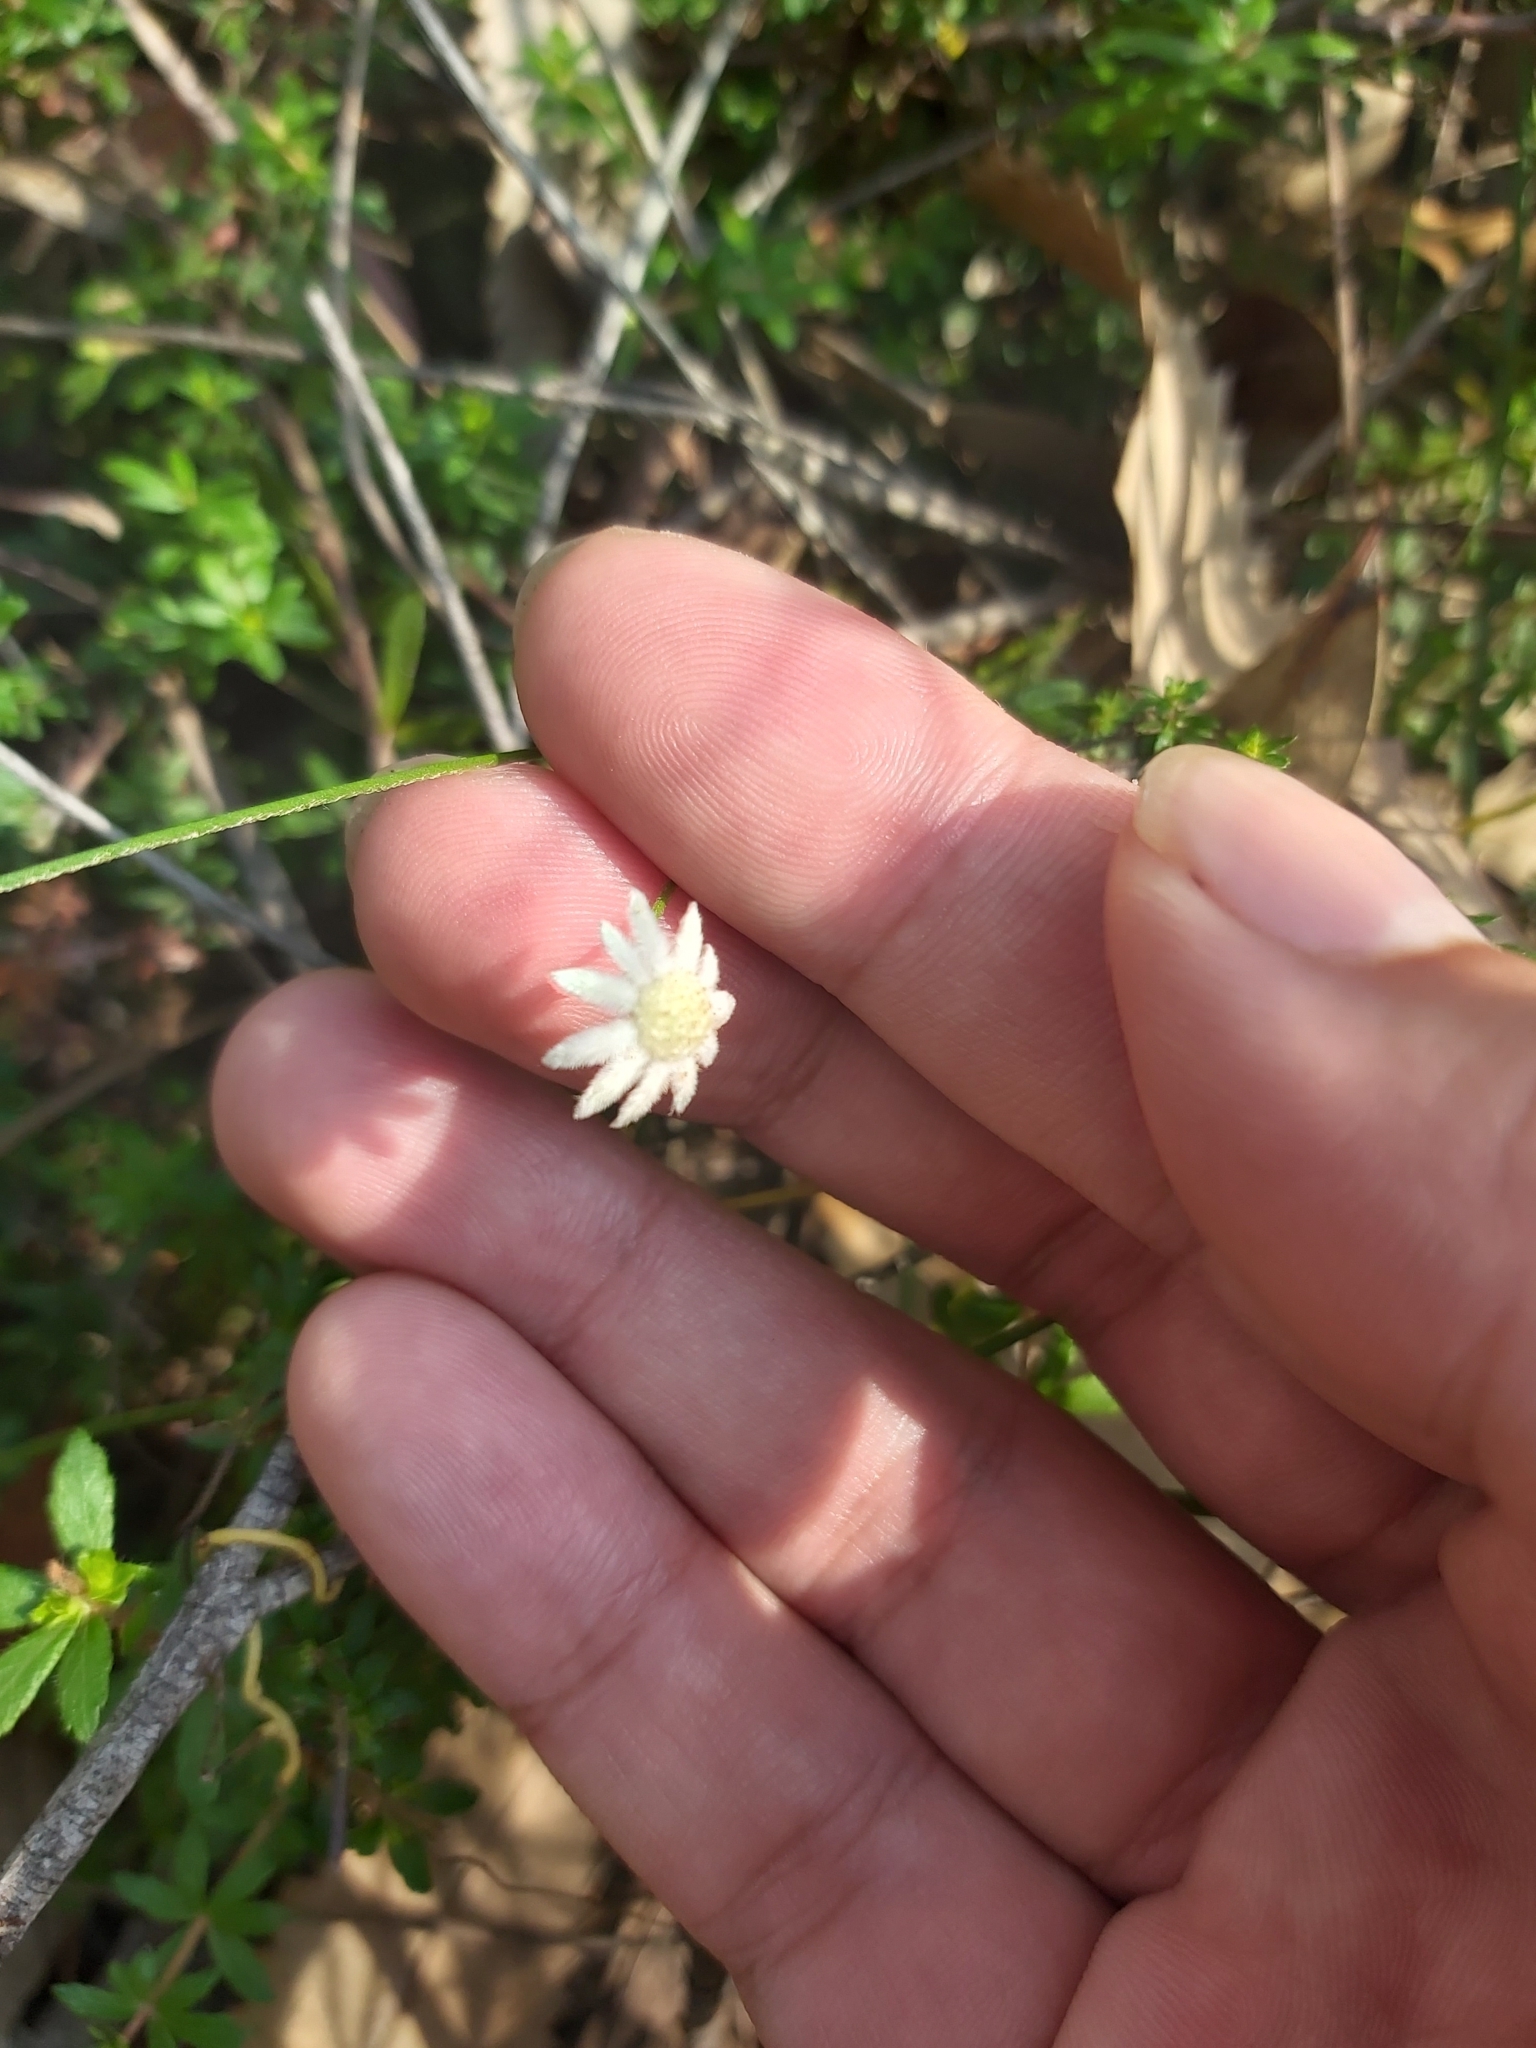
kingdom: Plantae
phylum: Tracheophyta
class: Magnoliopsida
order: Apiales
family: Apiaceae
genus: Actinotus
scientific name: Actinotus minor
